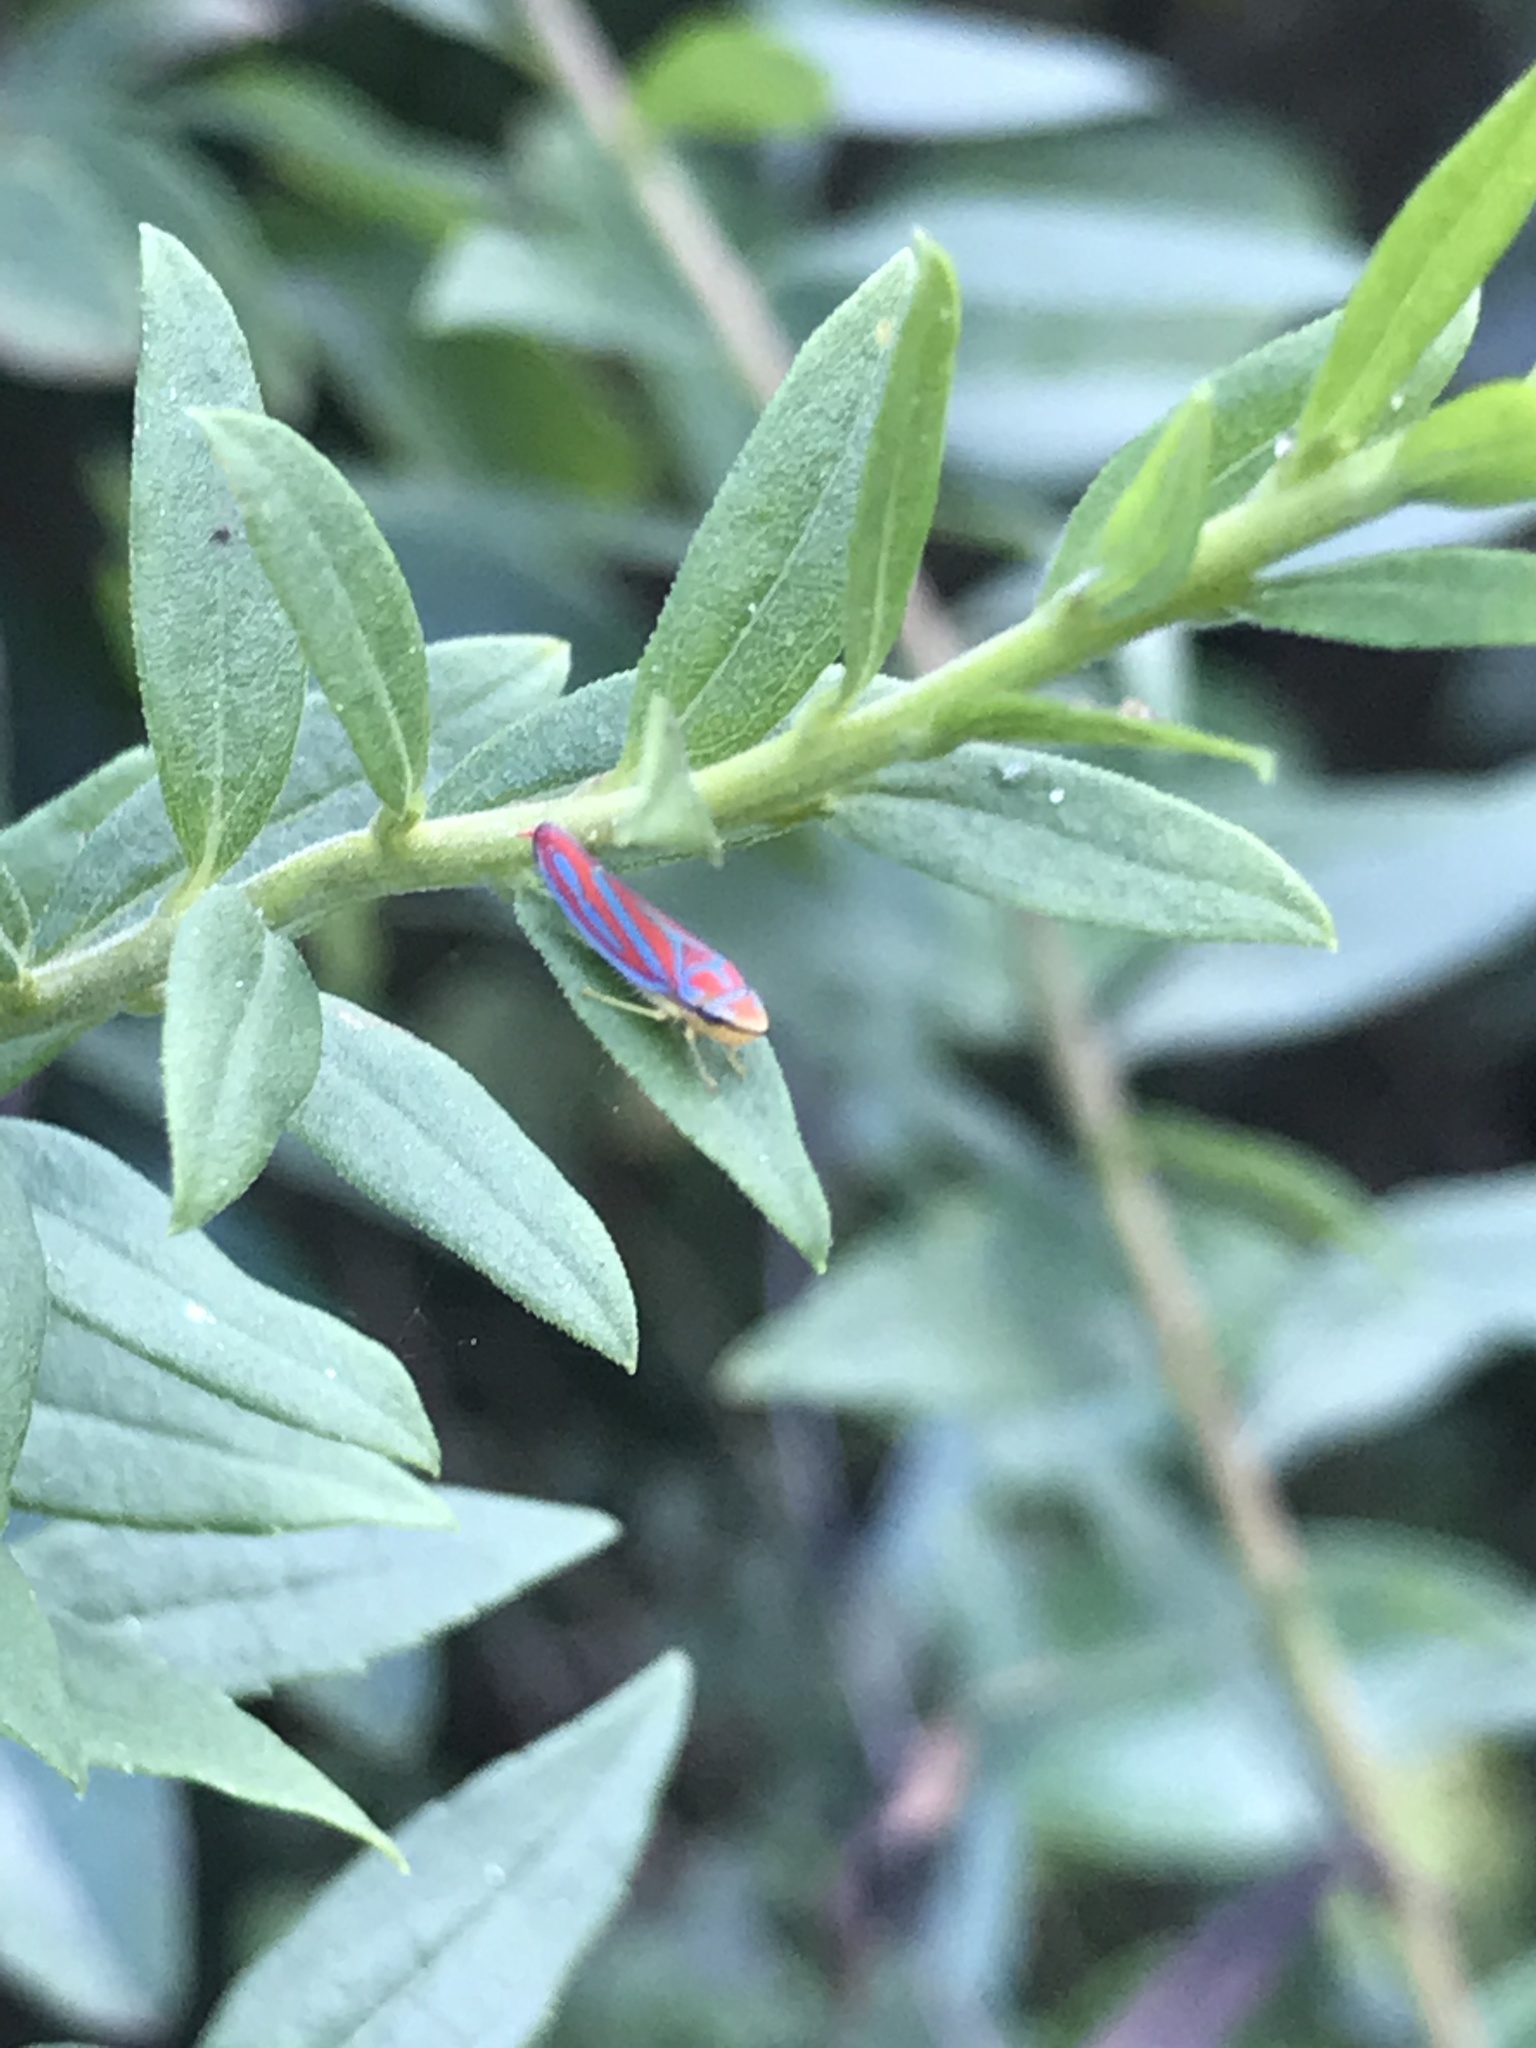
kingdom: Animalia
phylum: Arthropoda
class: Insecta
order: Hemiptera
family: Cicadellidae
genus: Graphocephala
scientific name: Graphocephala coccinea
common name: Candy-striped leafhopper
